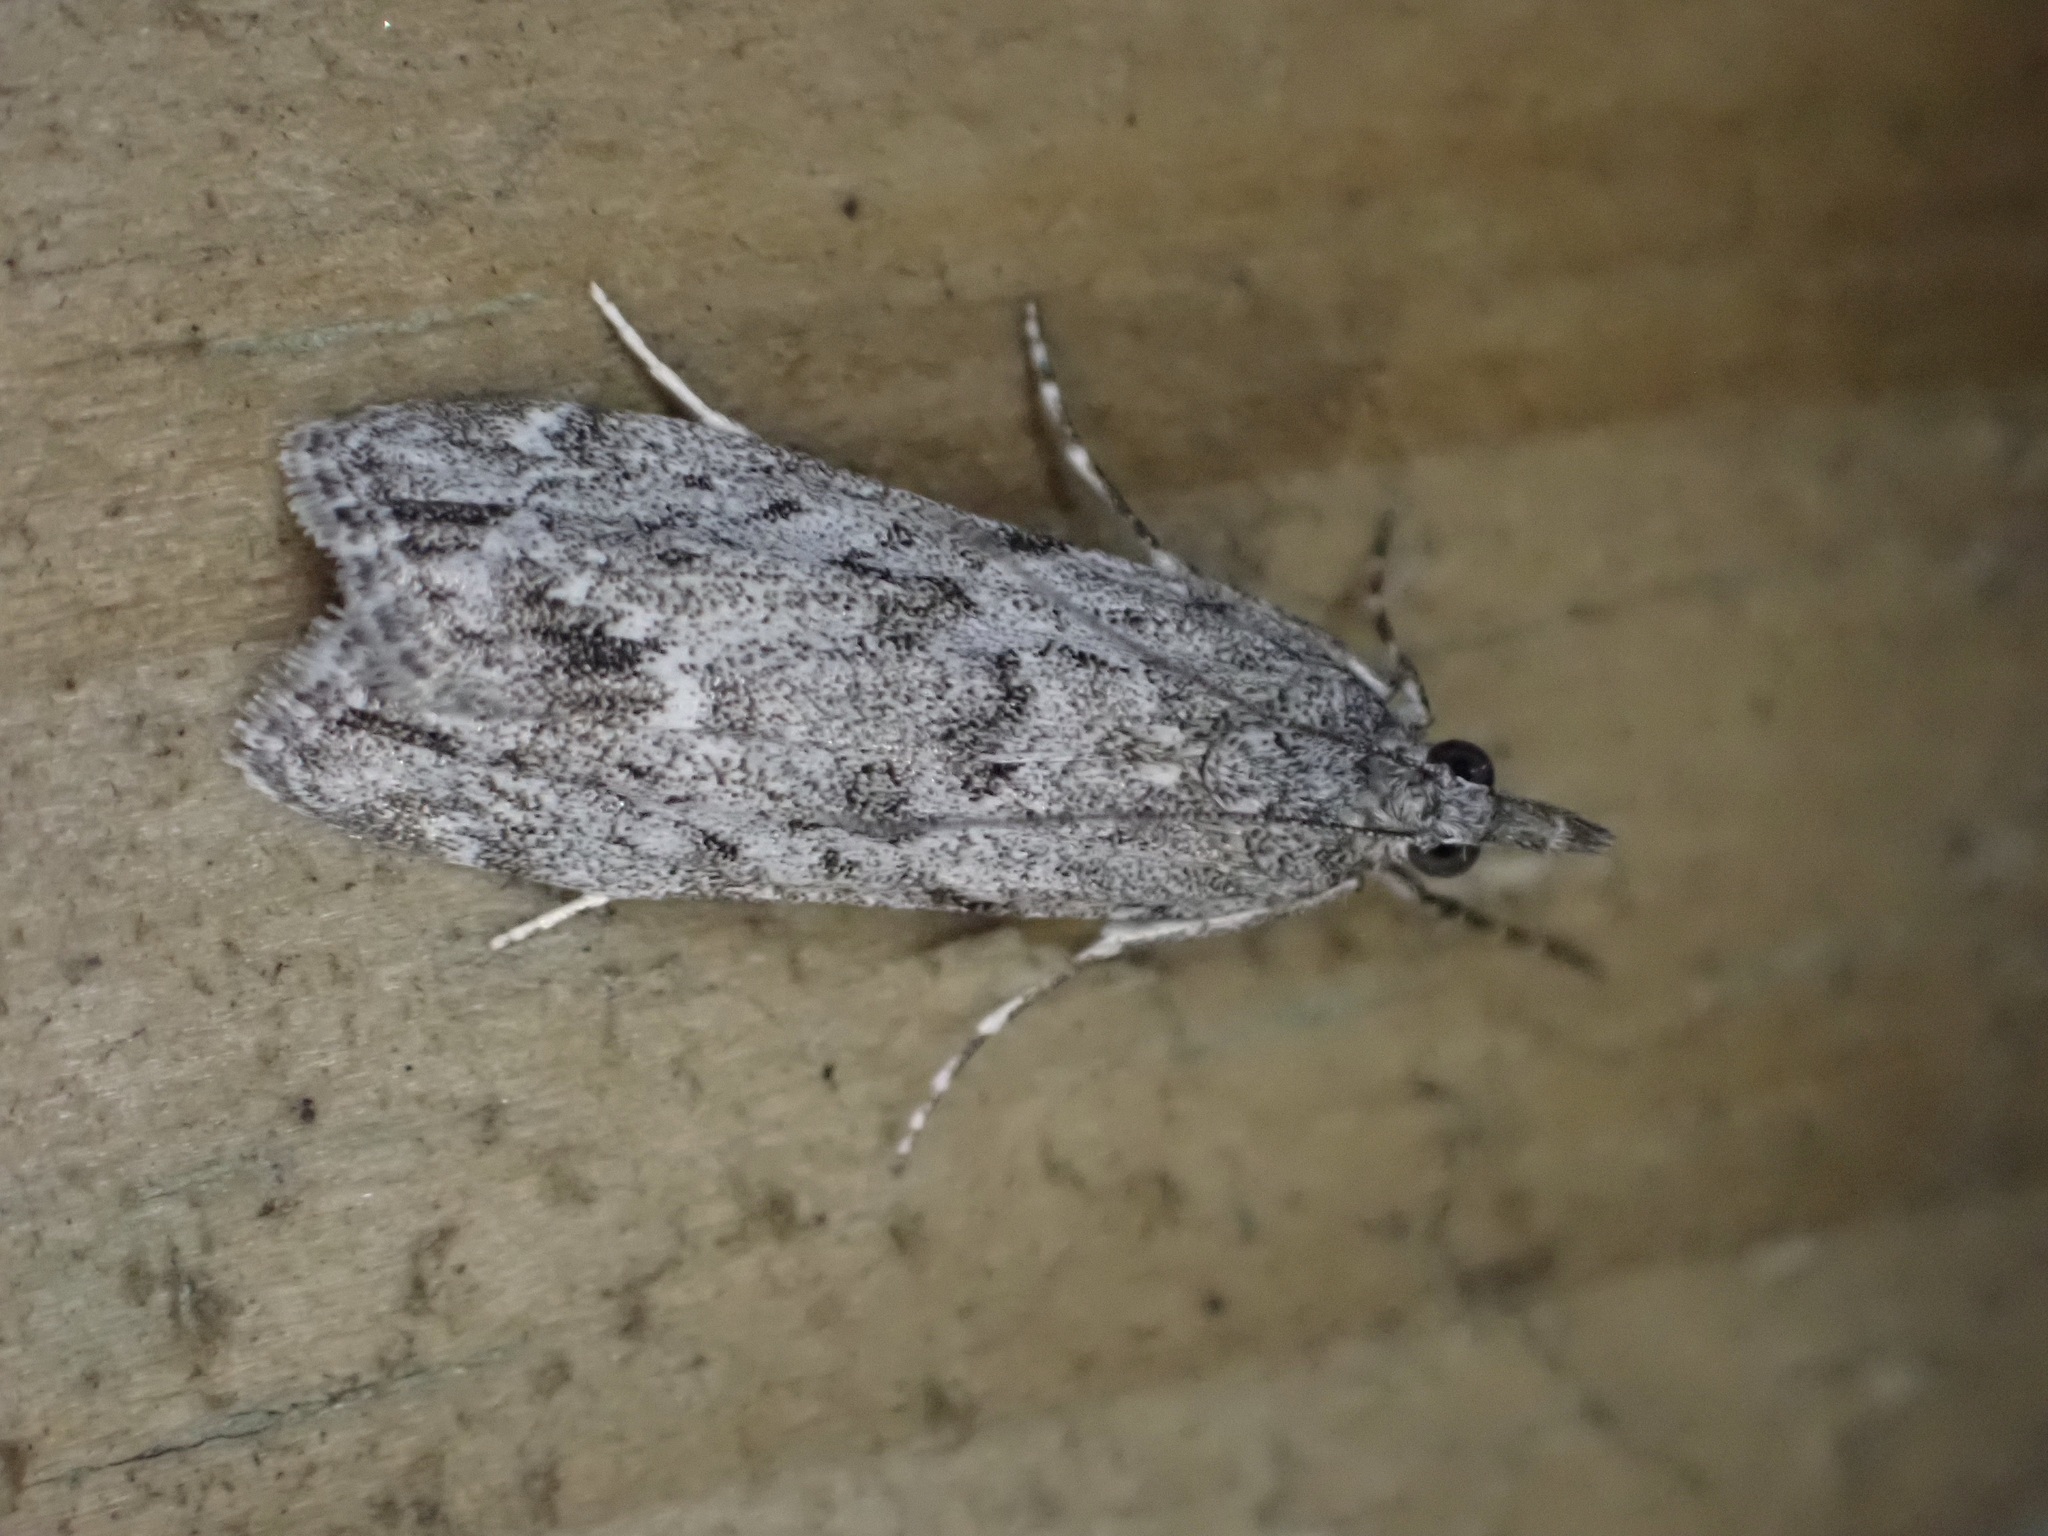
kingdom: Animalia
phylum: Arthropoda
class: Insecta
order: Lepidoptera
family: Crambidae
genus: Eudonia
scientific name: Eudonia rakaiensis
